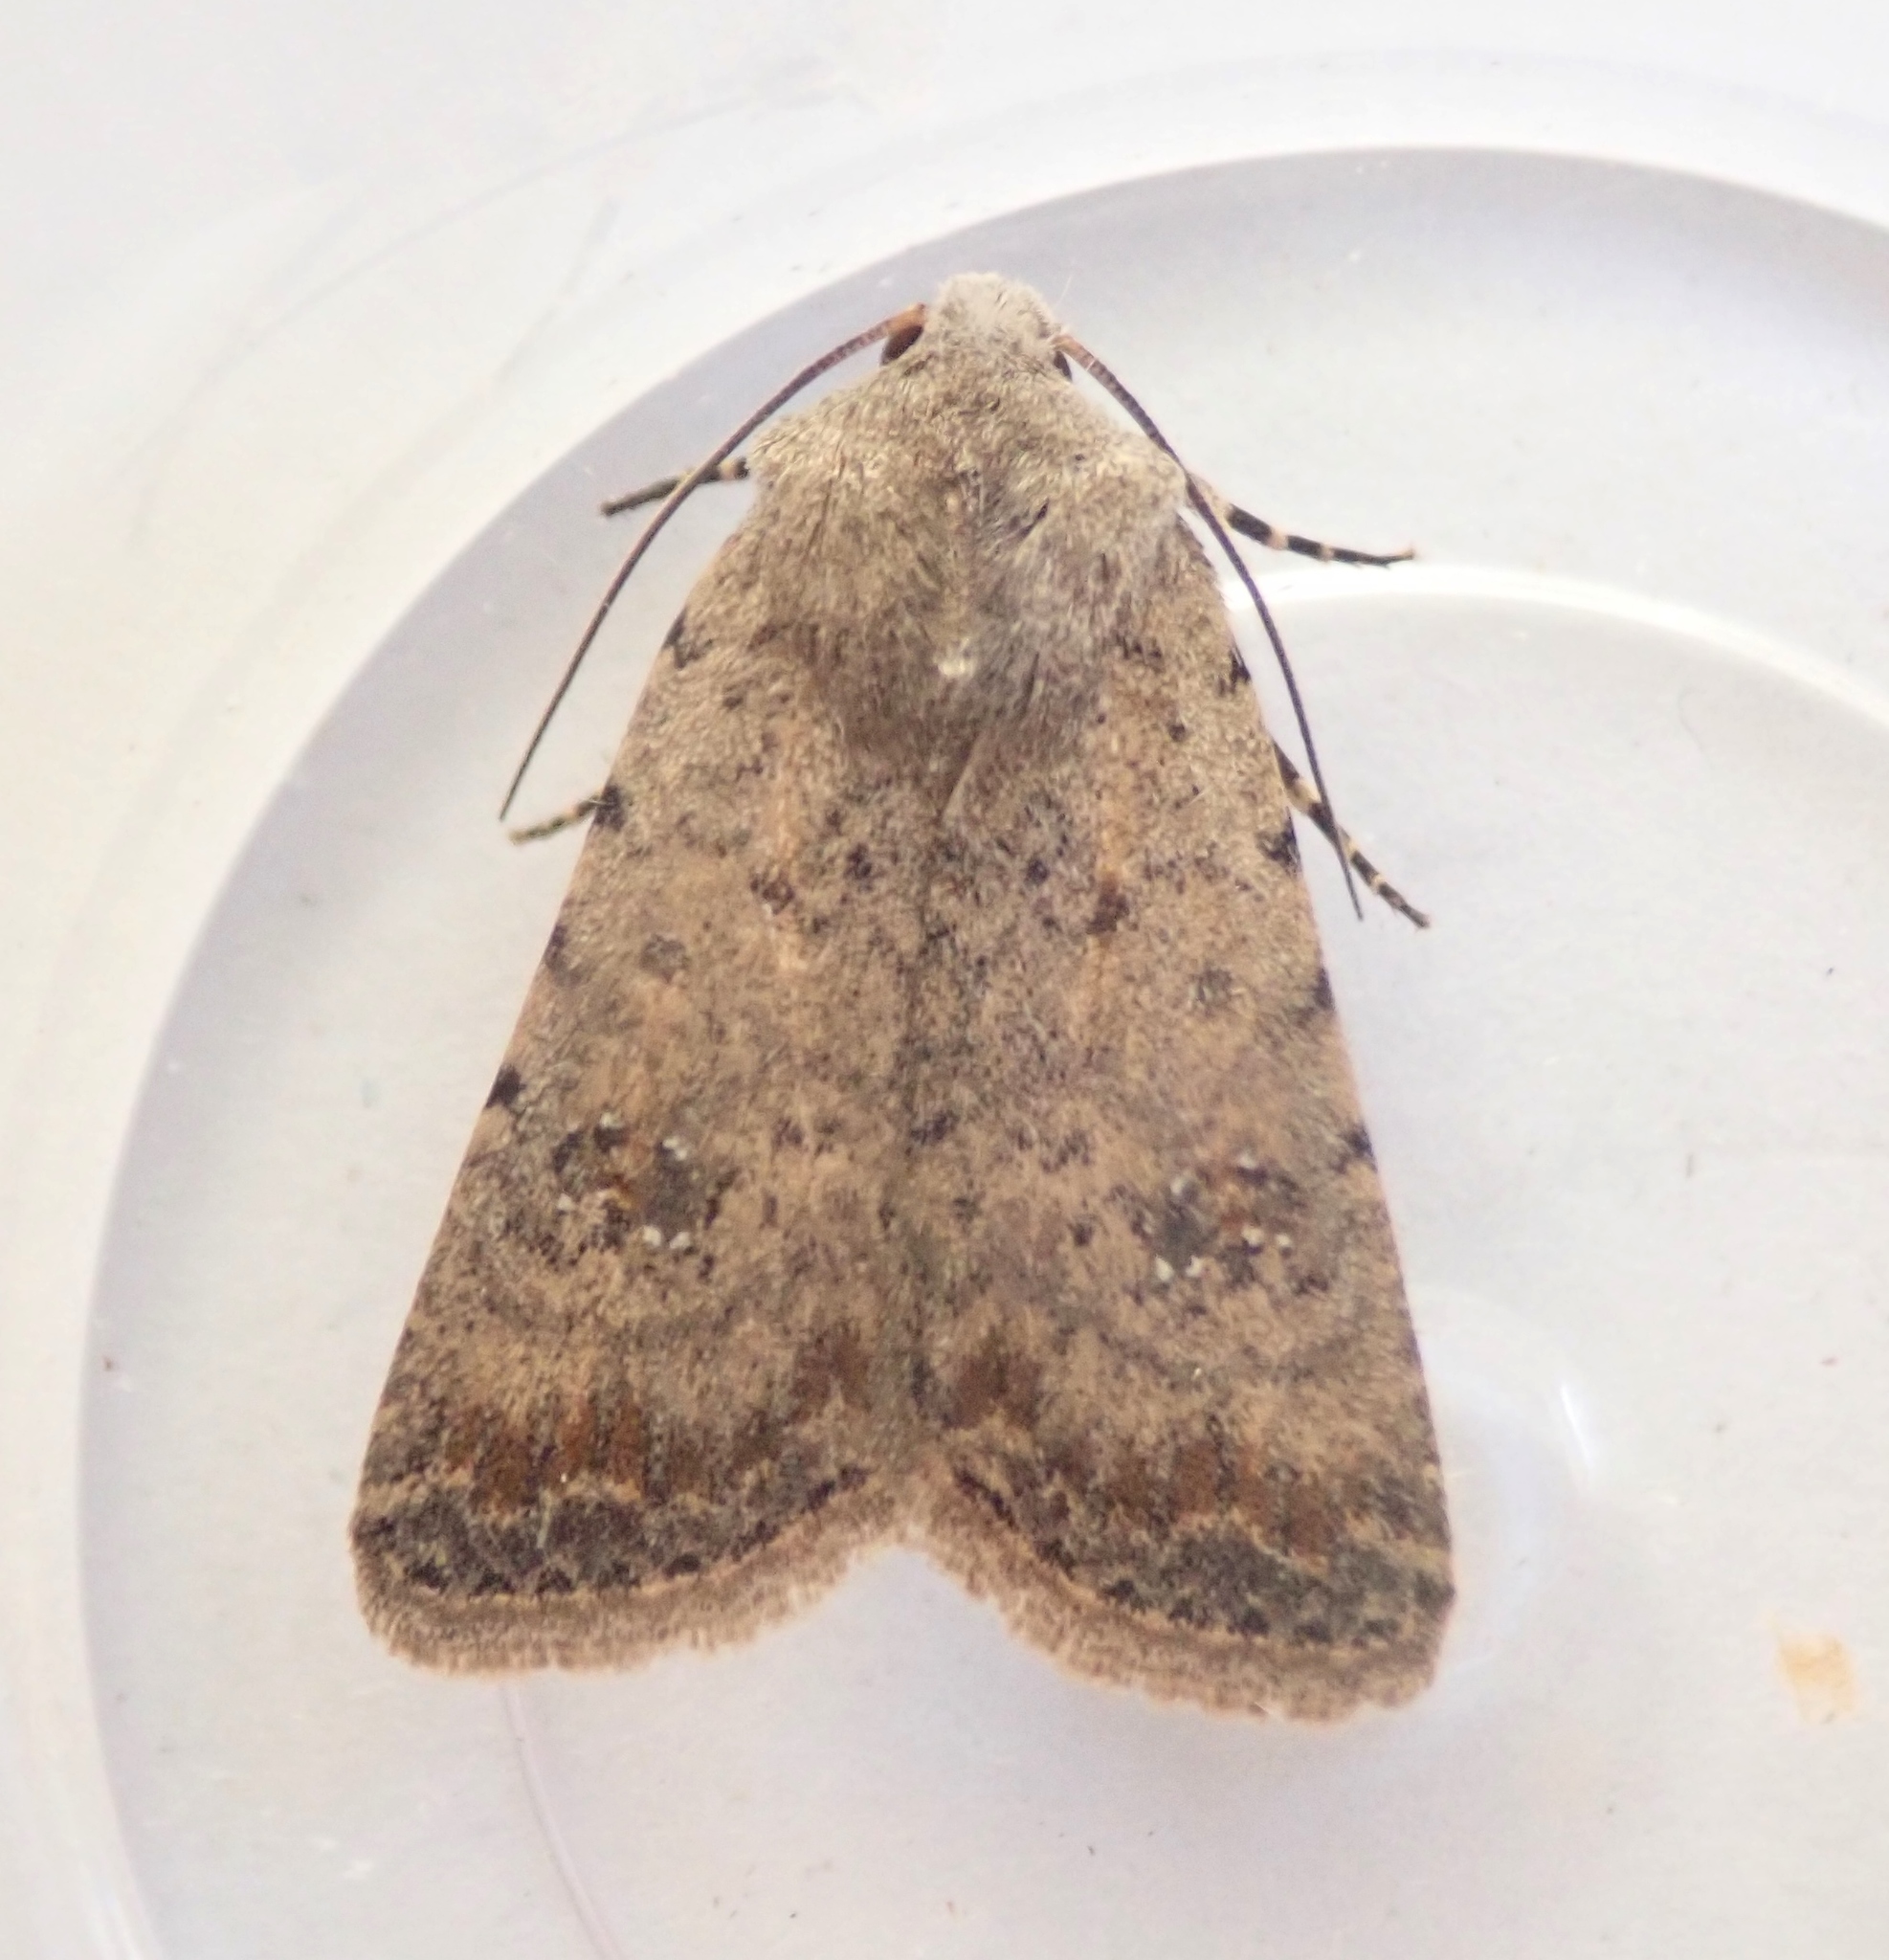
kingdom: Animalia
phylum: Arthropoda
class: Insecta
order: Lepidoptera
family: Noctuidae
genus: Caradrina
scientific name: Caradrina clavipalpis
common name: Pale mottled willow
